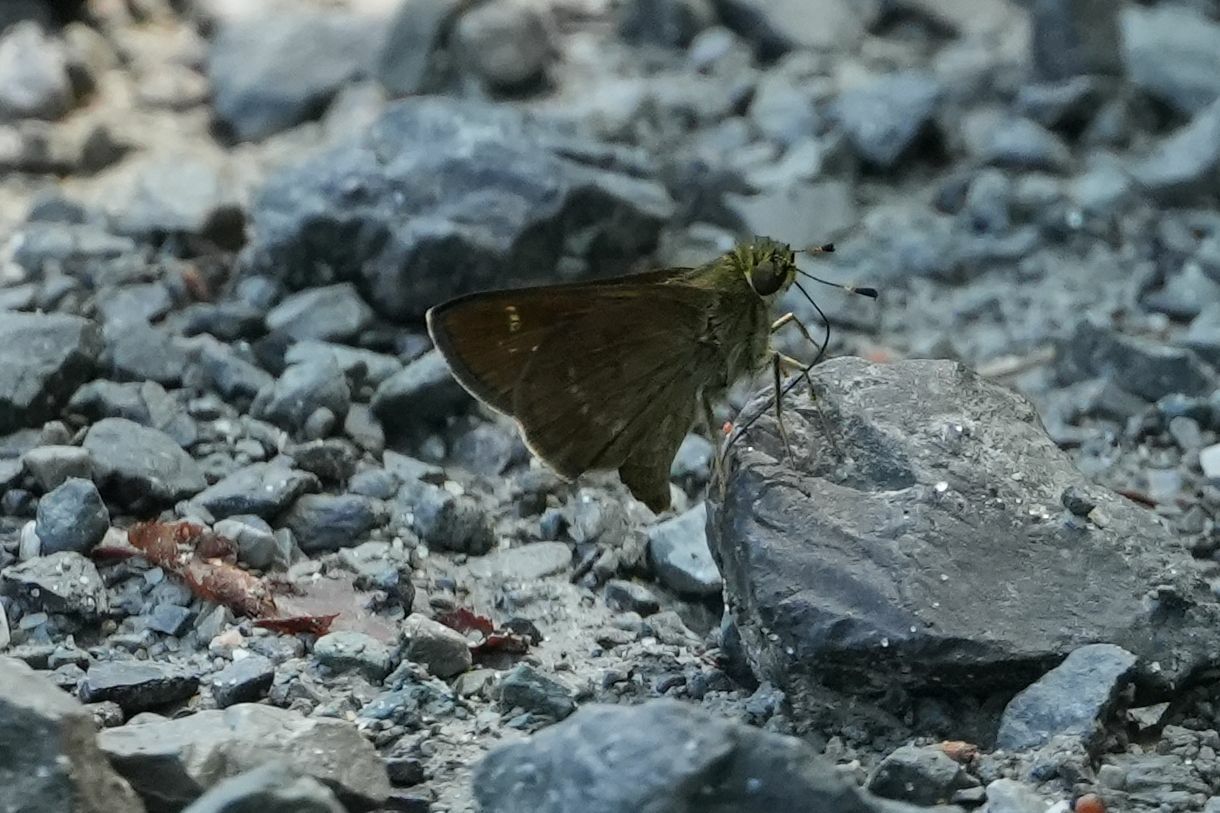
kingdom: Animalia
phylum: Arthropoda
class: Insecta
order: Lepidoptera
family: Hesperiidae
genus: Vernia
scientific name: Vernia verna
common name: Little glassywing
